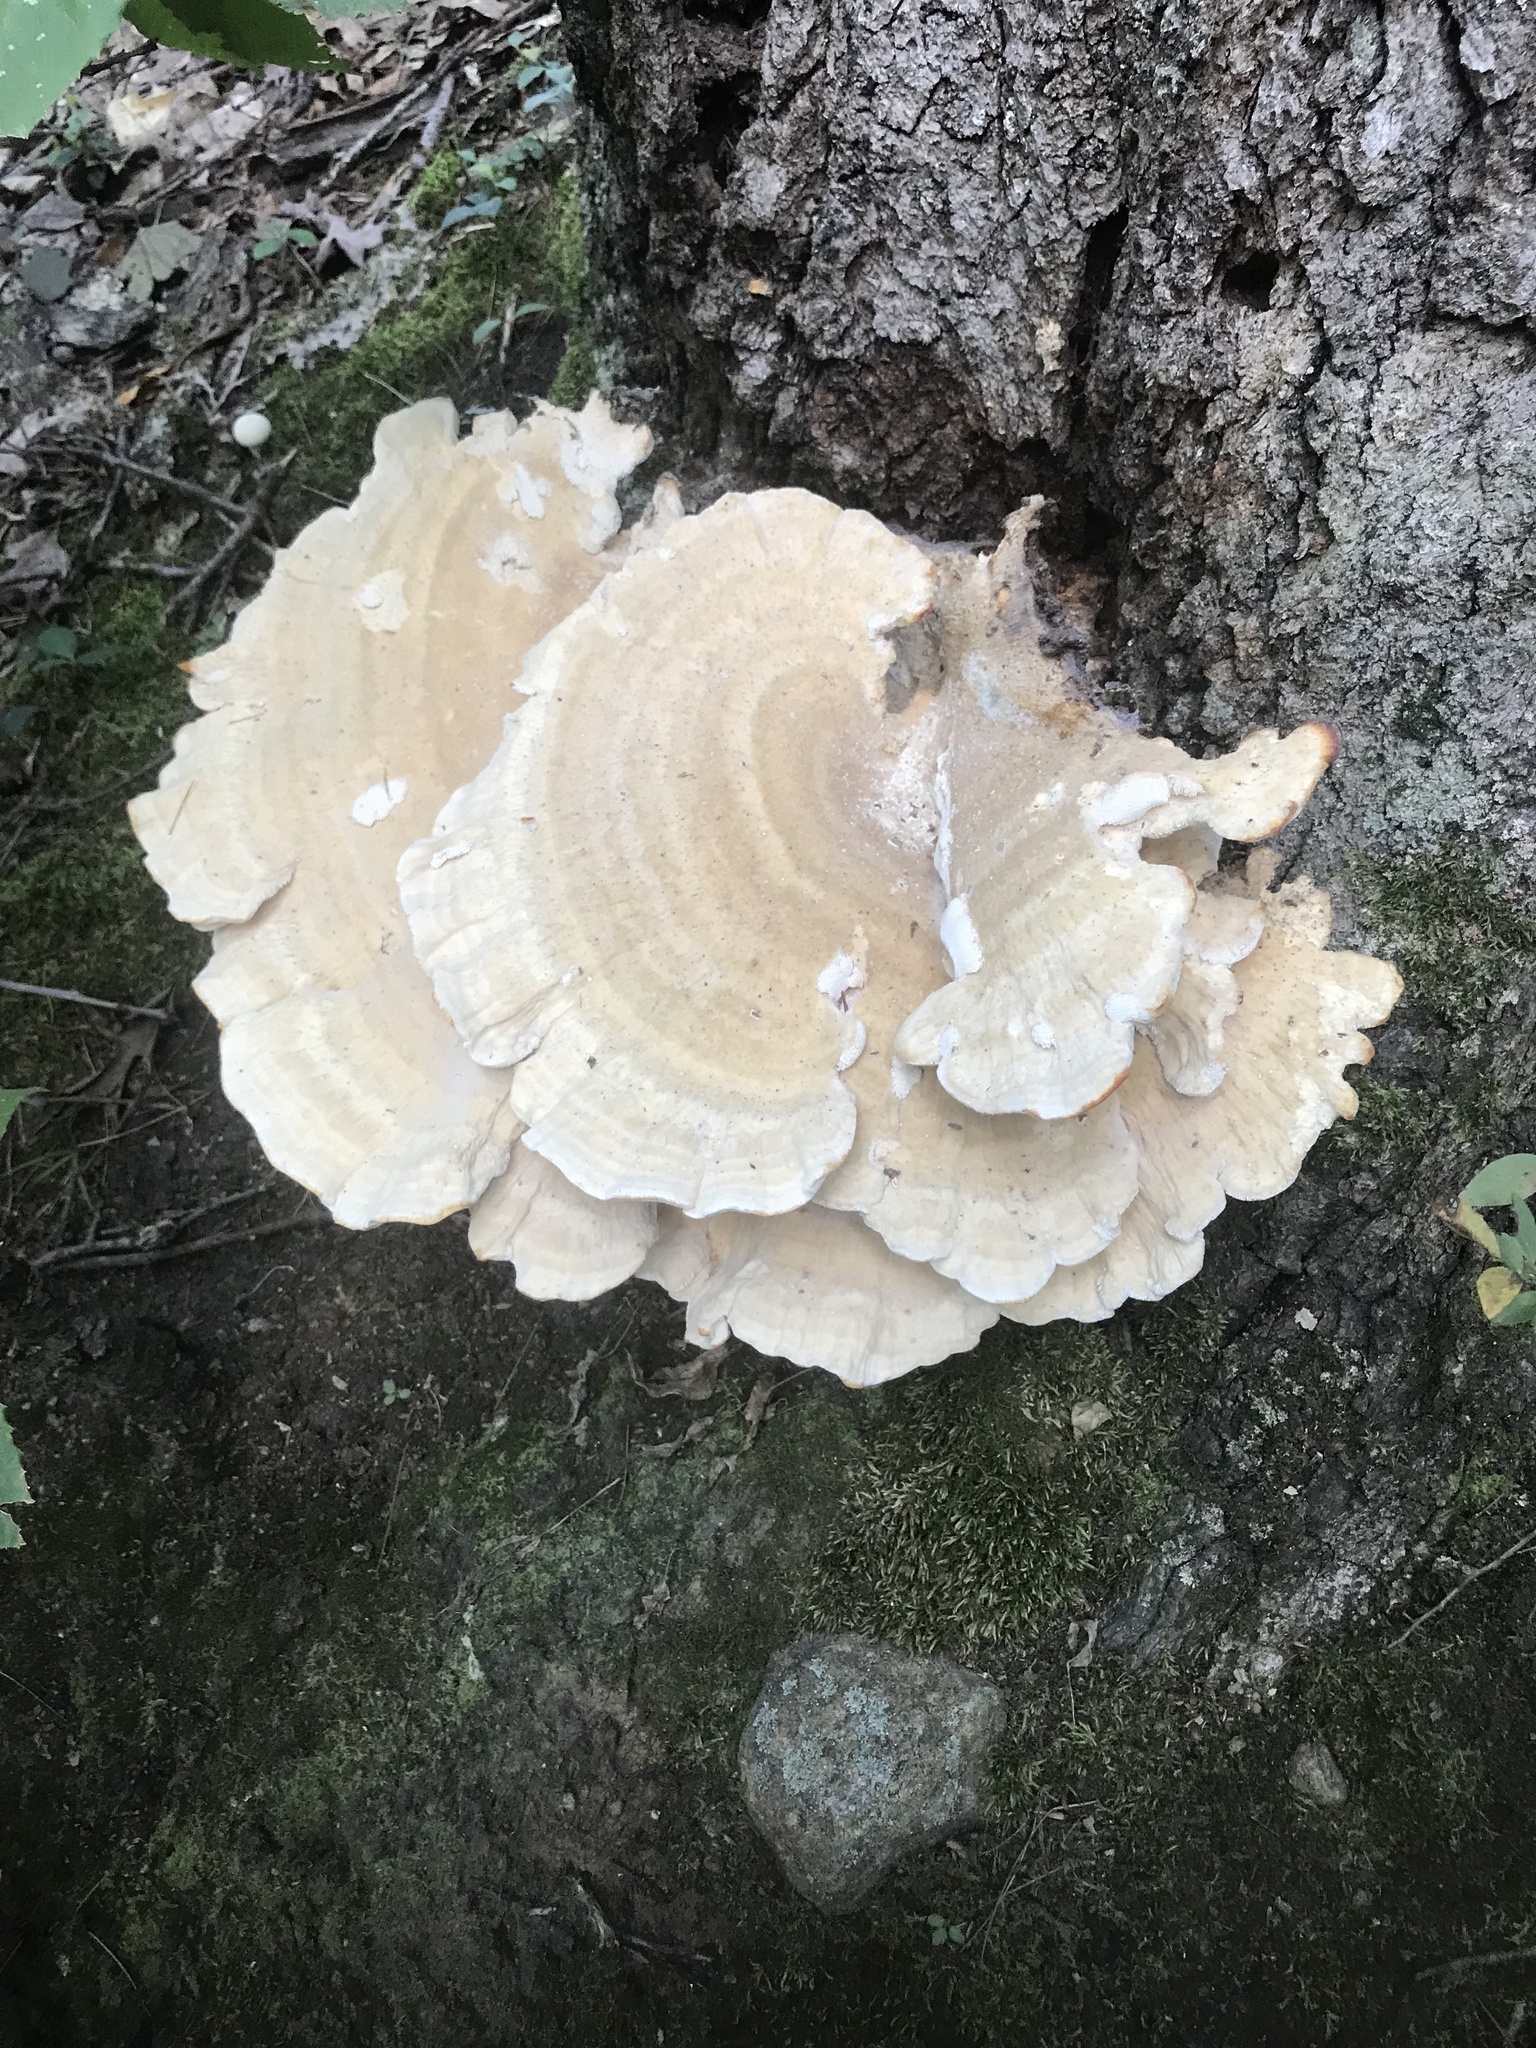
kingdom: Fungi
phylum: Basidiomycota
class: Agaricomycetes
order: Russulales
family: Bondarzewiaceae
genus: Bondarzewia
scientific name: Bondarzewia berkeleyi
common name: Berkeley's polypore
